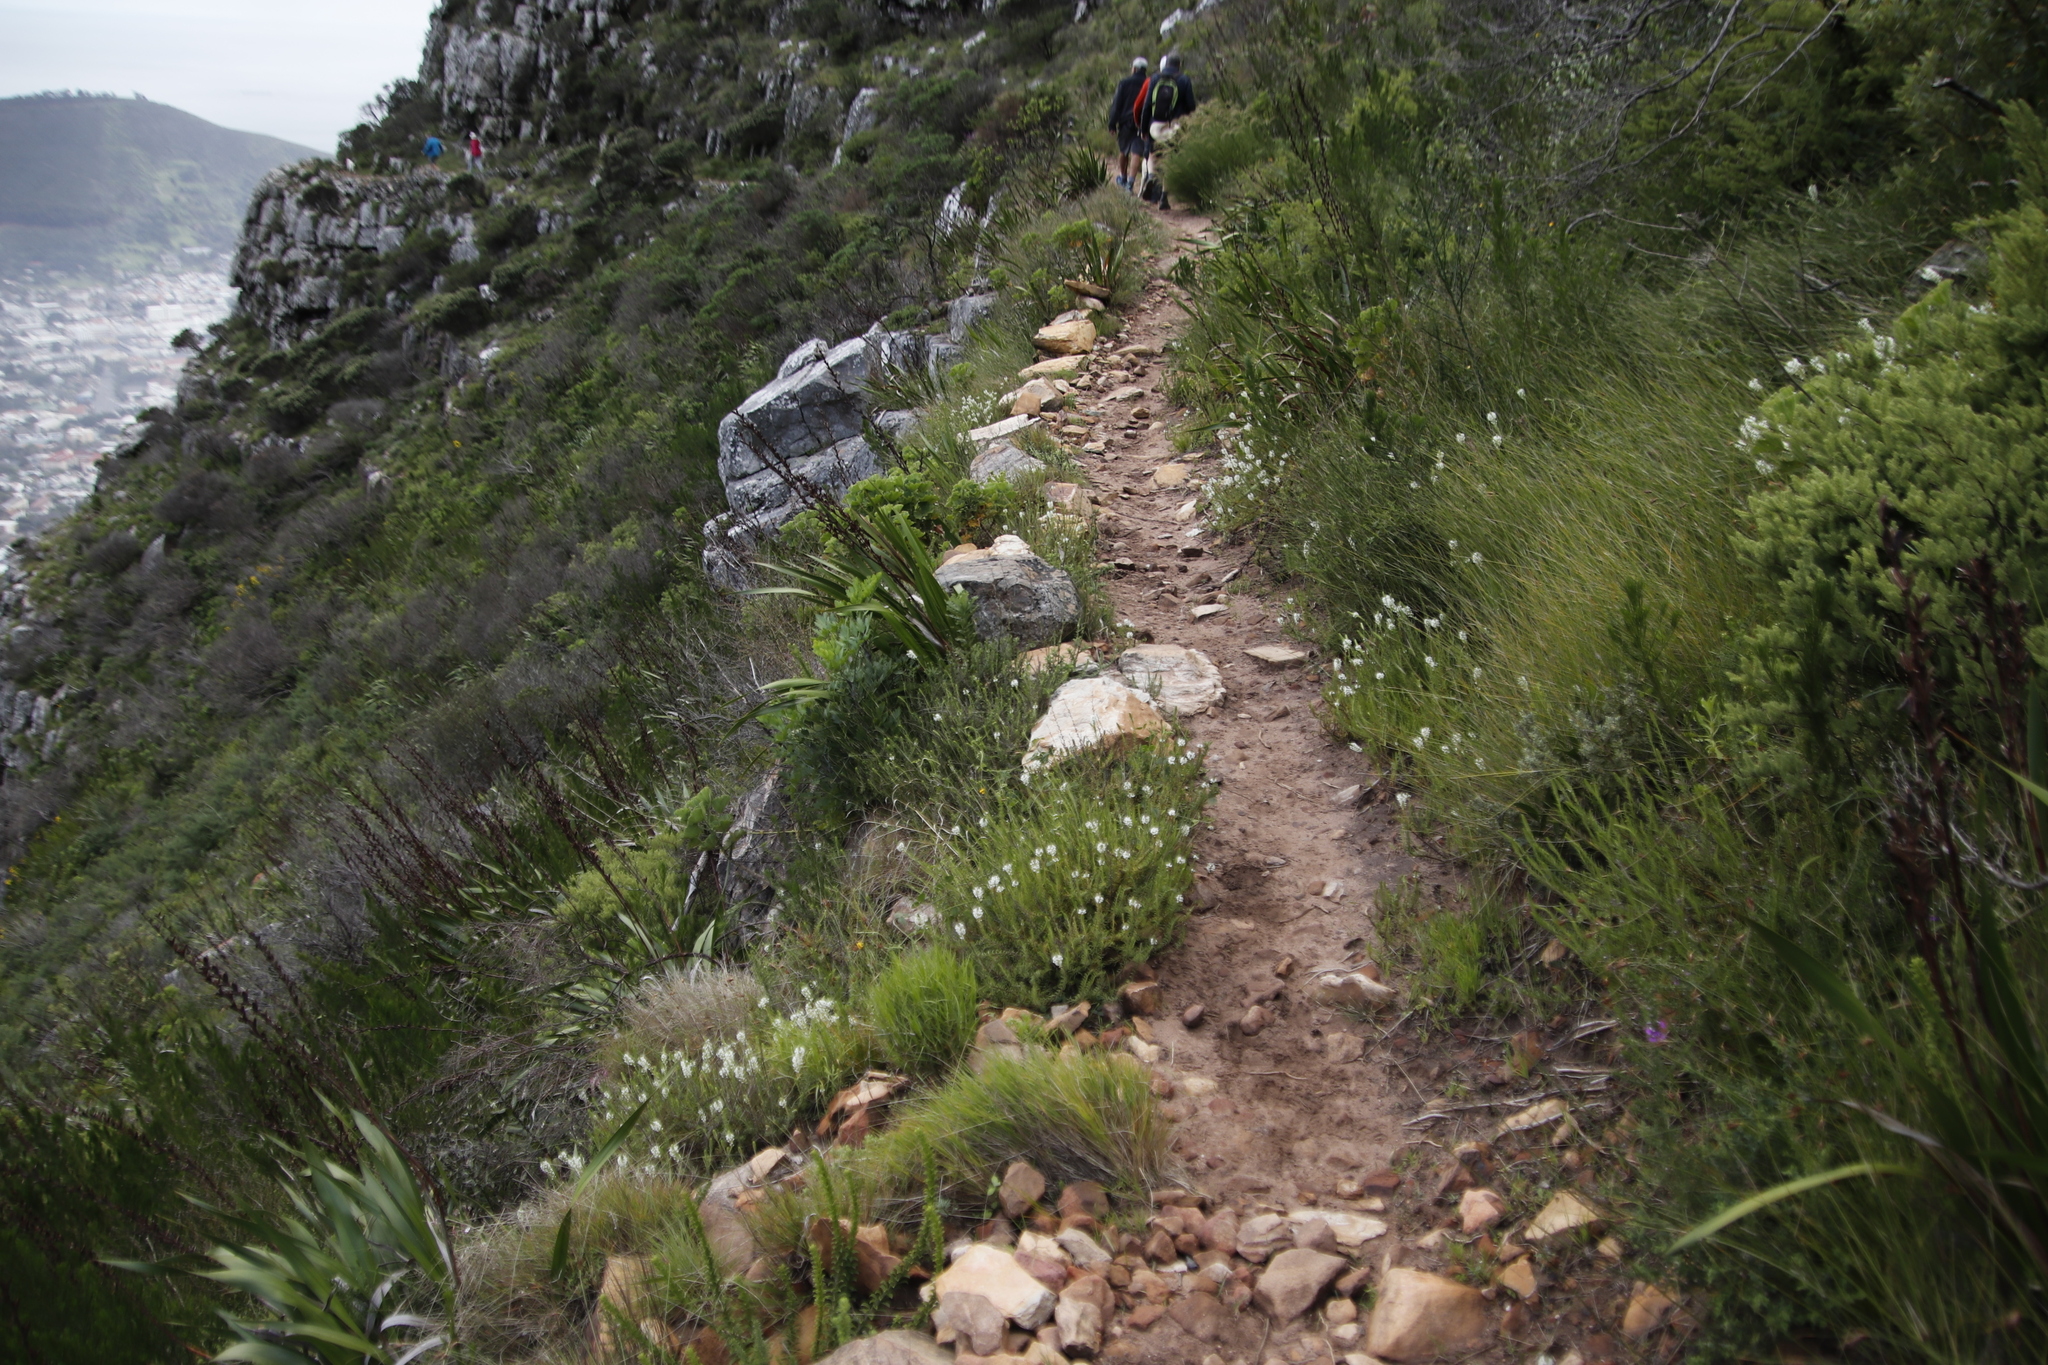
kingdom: Plantae
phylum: Tracheophyta
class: Magnoliopsida
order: Lamiales
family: Scrophulariaceae
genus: Dischisma
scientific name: Dischisma ciliatum
